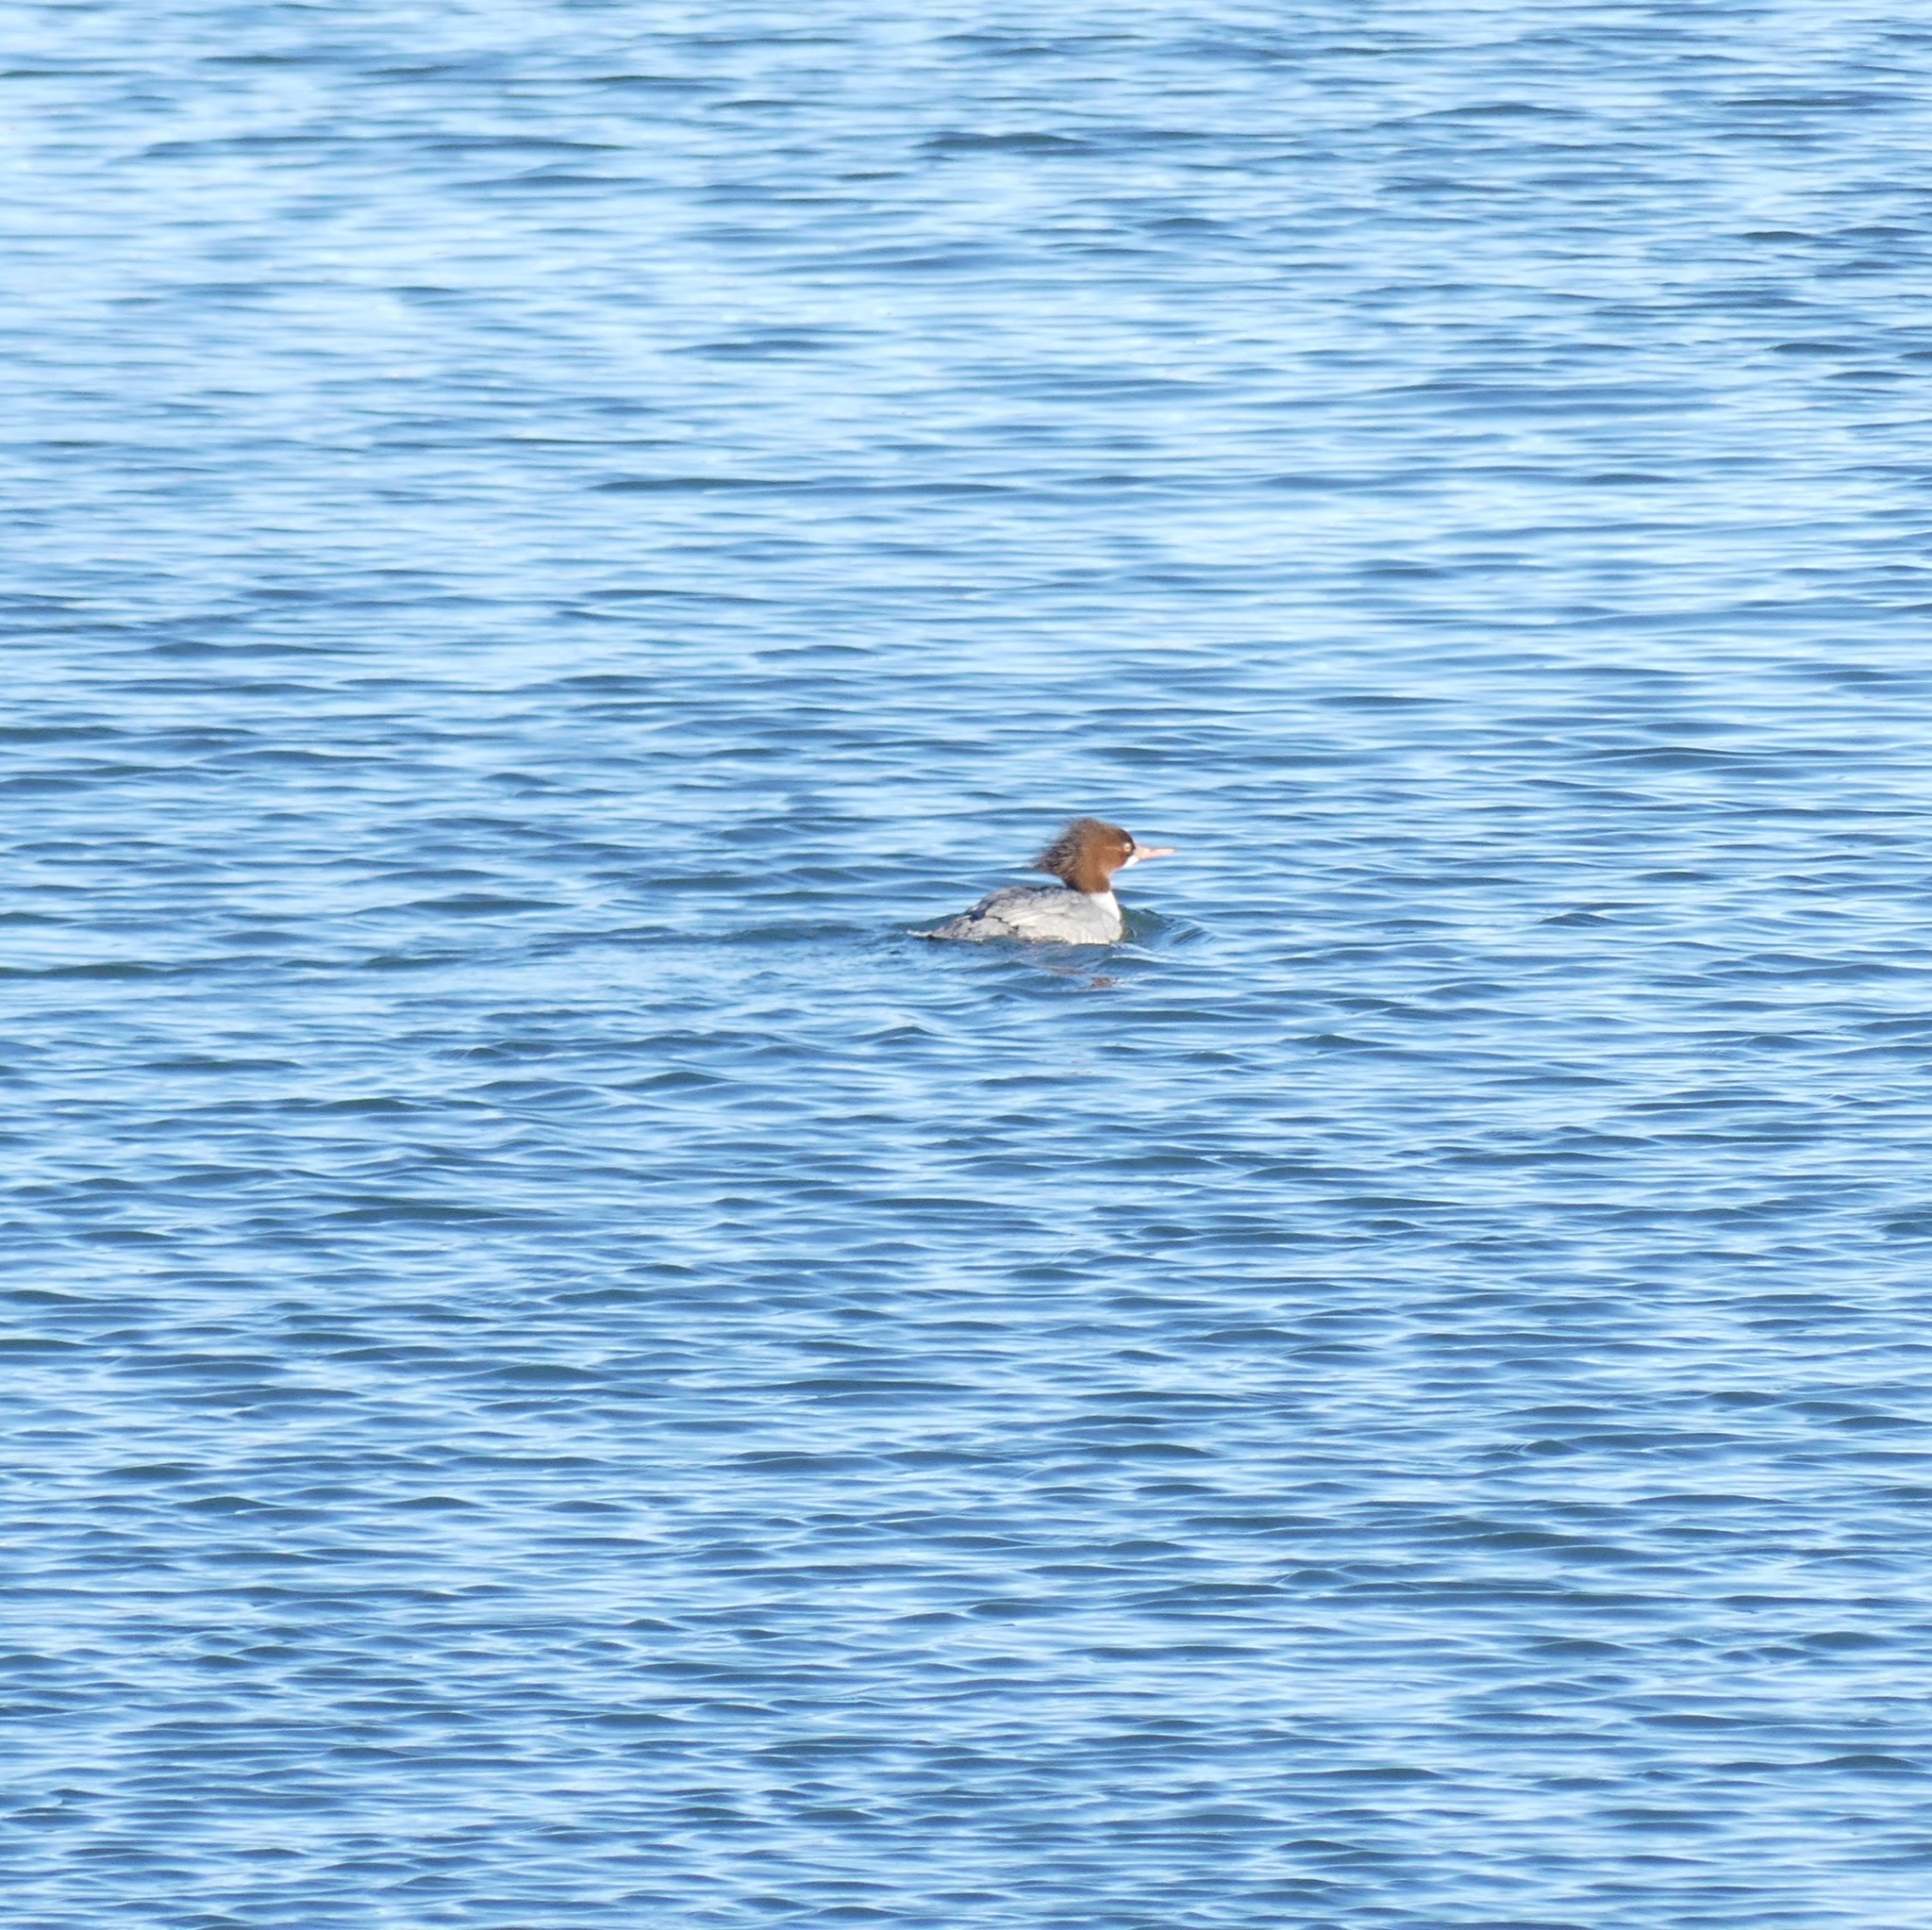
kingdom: Animalia
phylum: Chordata
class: Aves
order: Anseriformes
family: Anatidae
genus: Mergus
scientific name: Mergus merganser
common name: Common merganser
